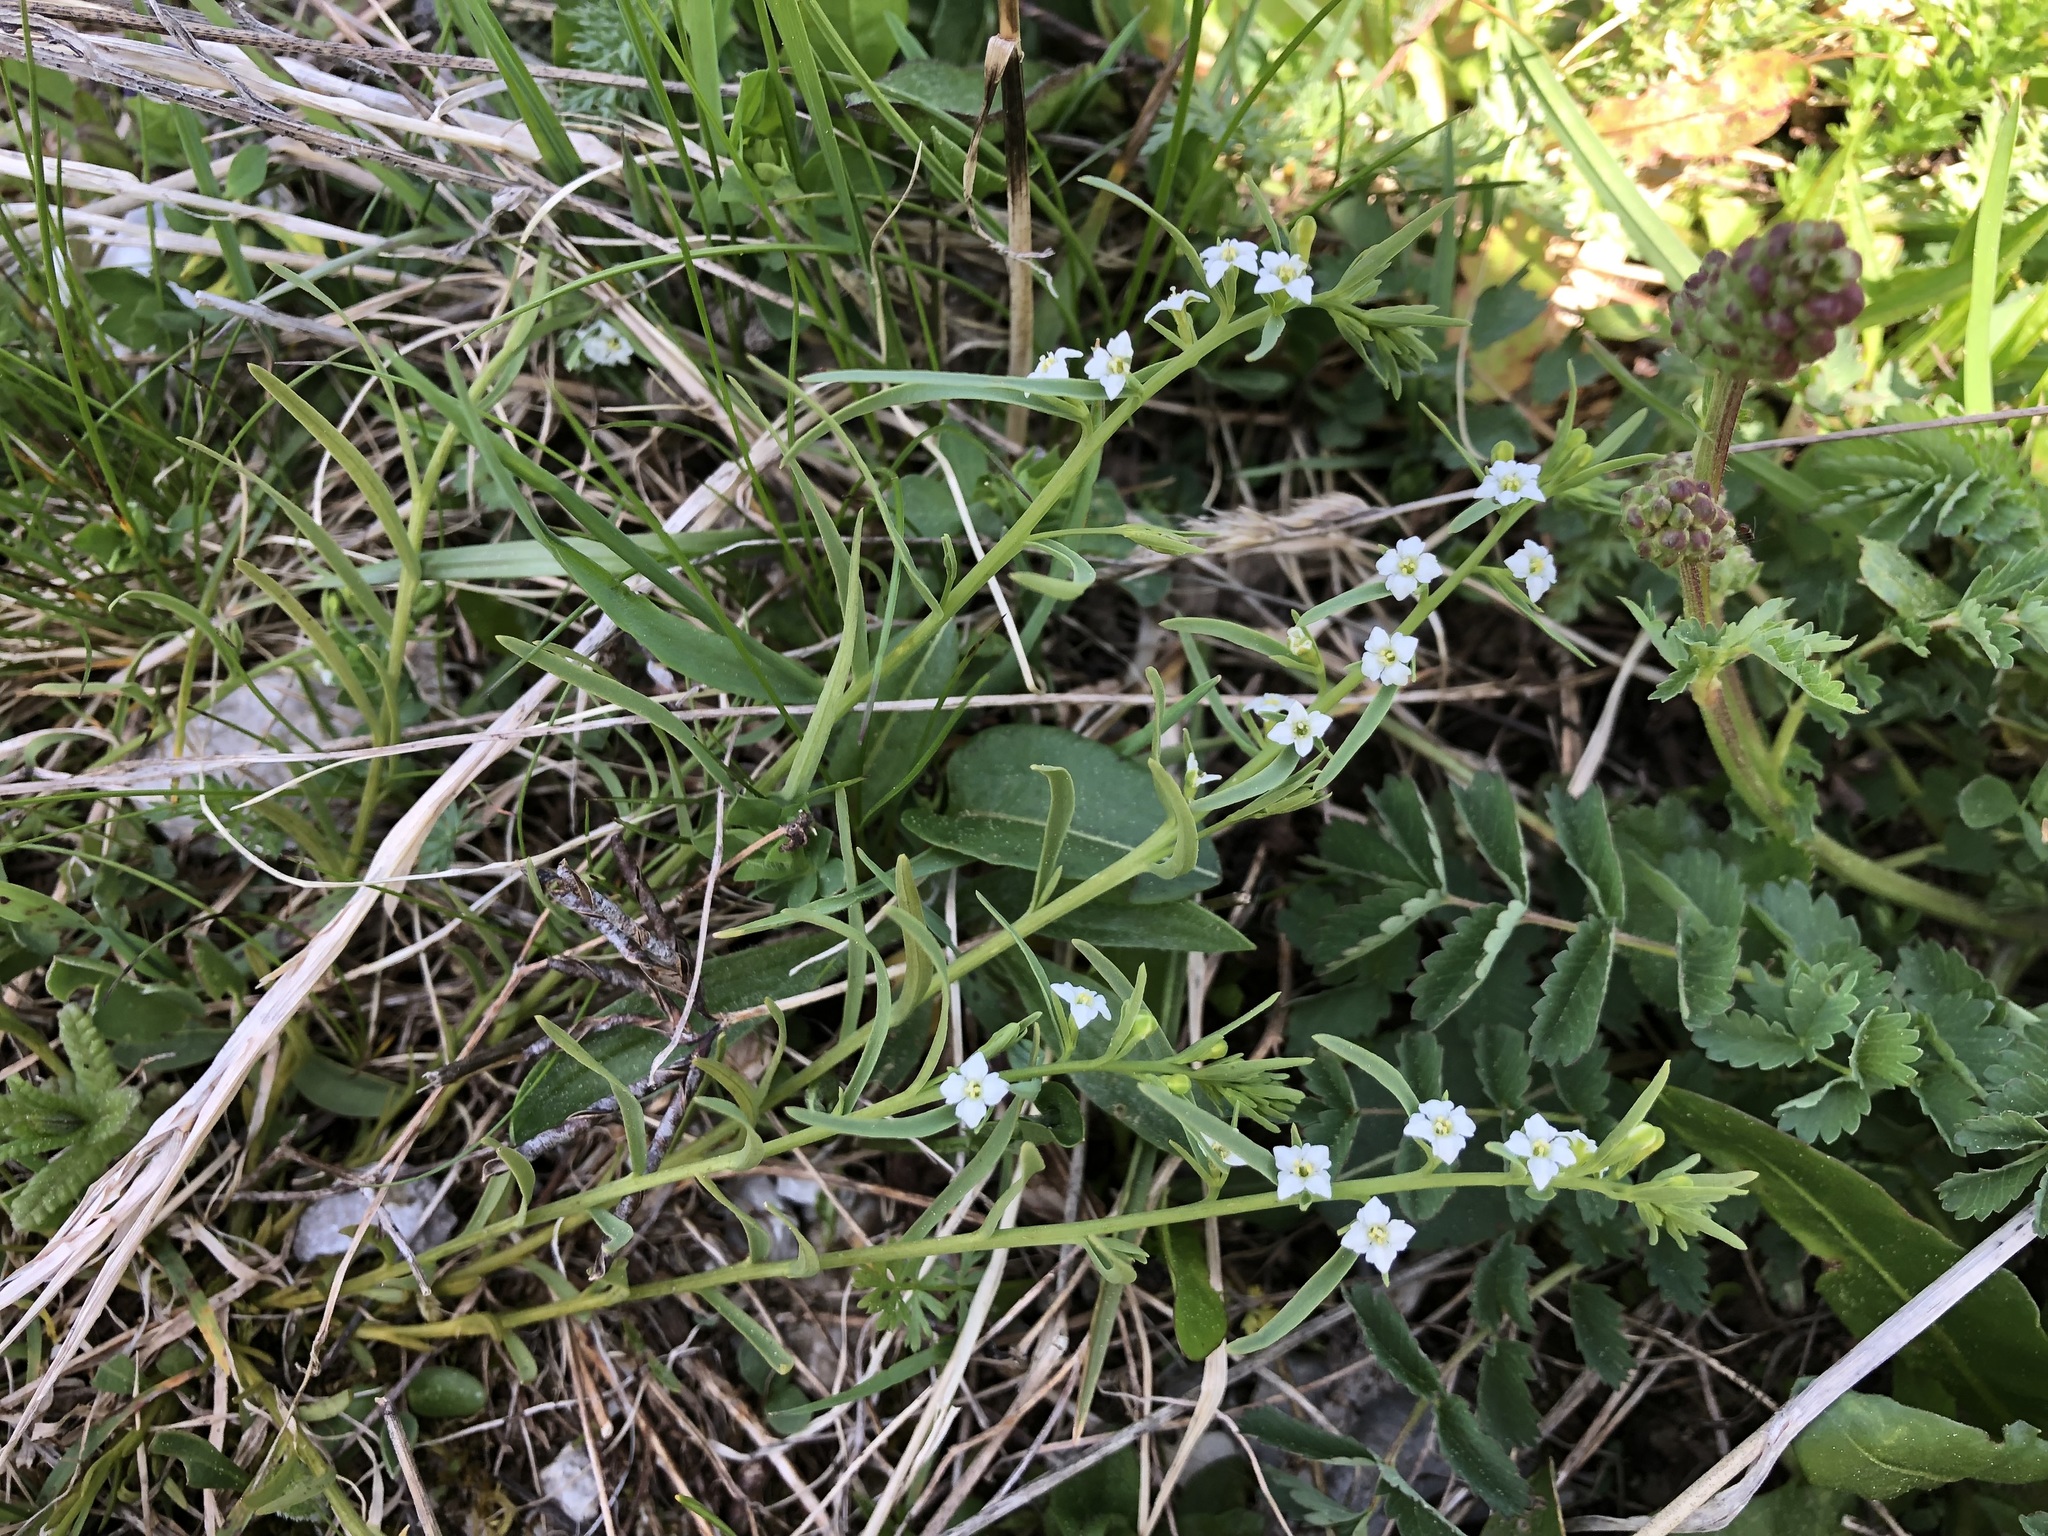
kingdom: Plantae
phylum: Tracheophyta
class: Magnoliopsida
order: Santalales
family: Thesiaceae
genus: Thesium
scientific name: Thesium alpinum
